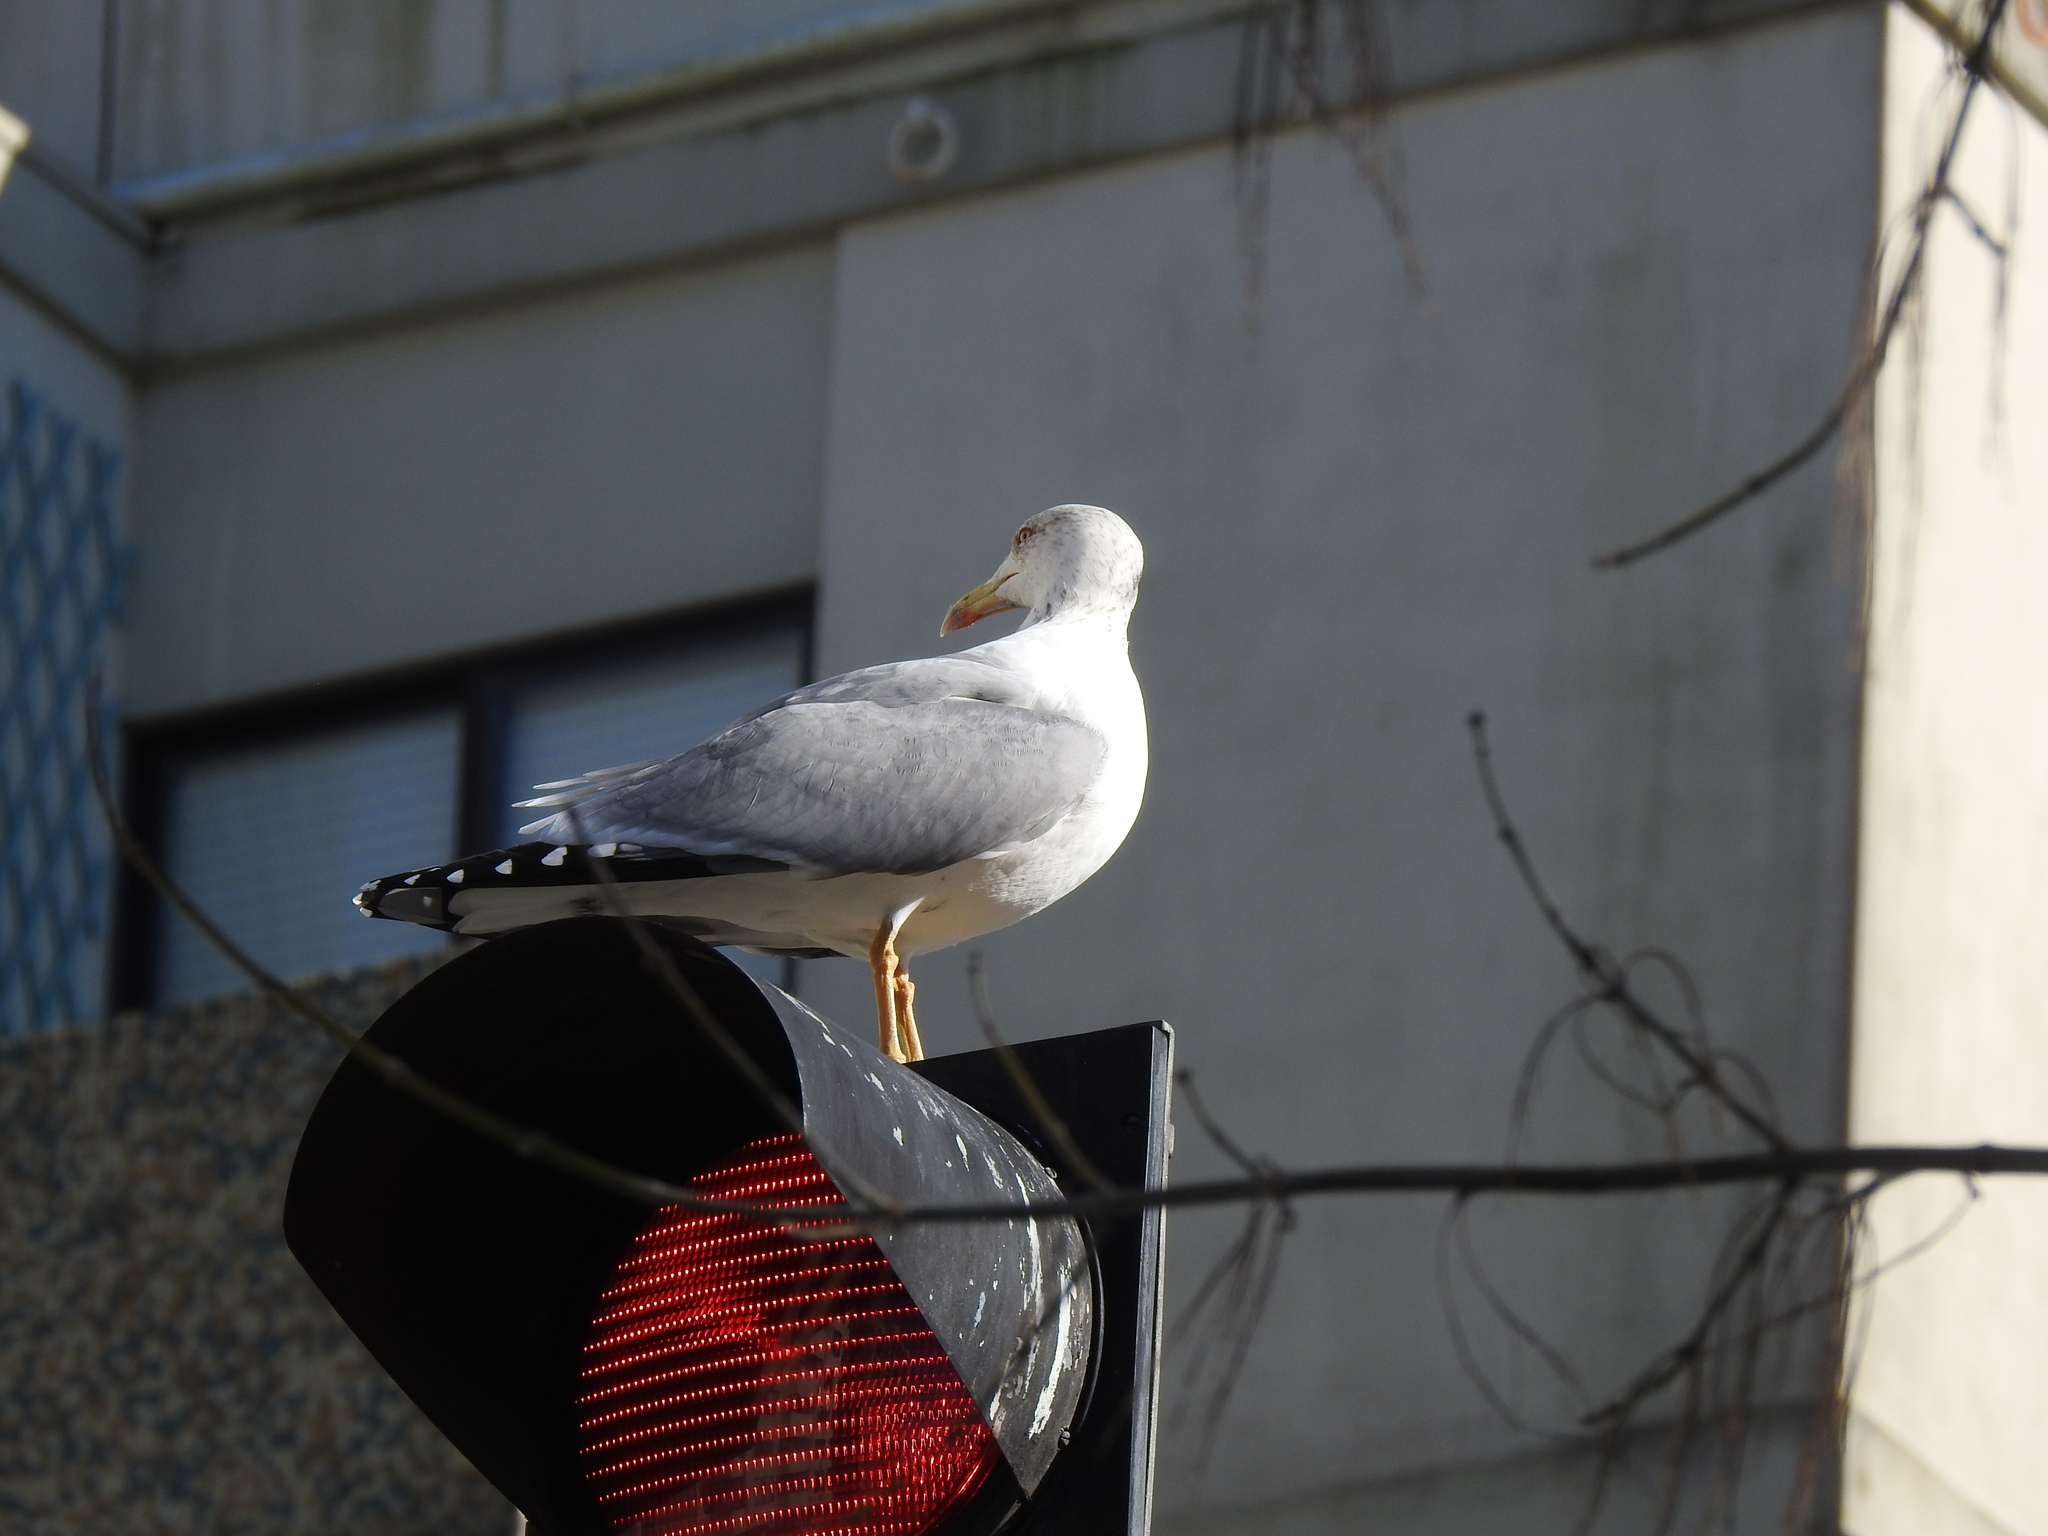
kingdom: Animalia
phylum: Chordata
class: Aves
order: Charadriiformes
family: Laridae
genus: Larus
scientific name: Larus michahellis
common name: Yellow-legged gull
